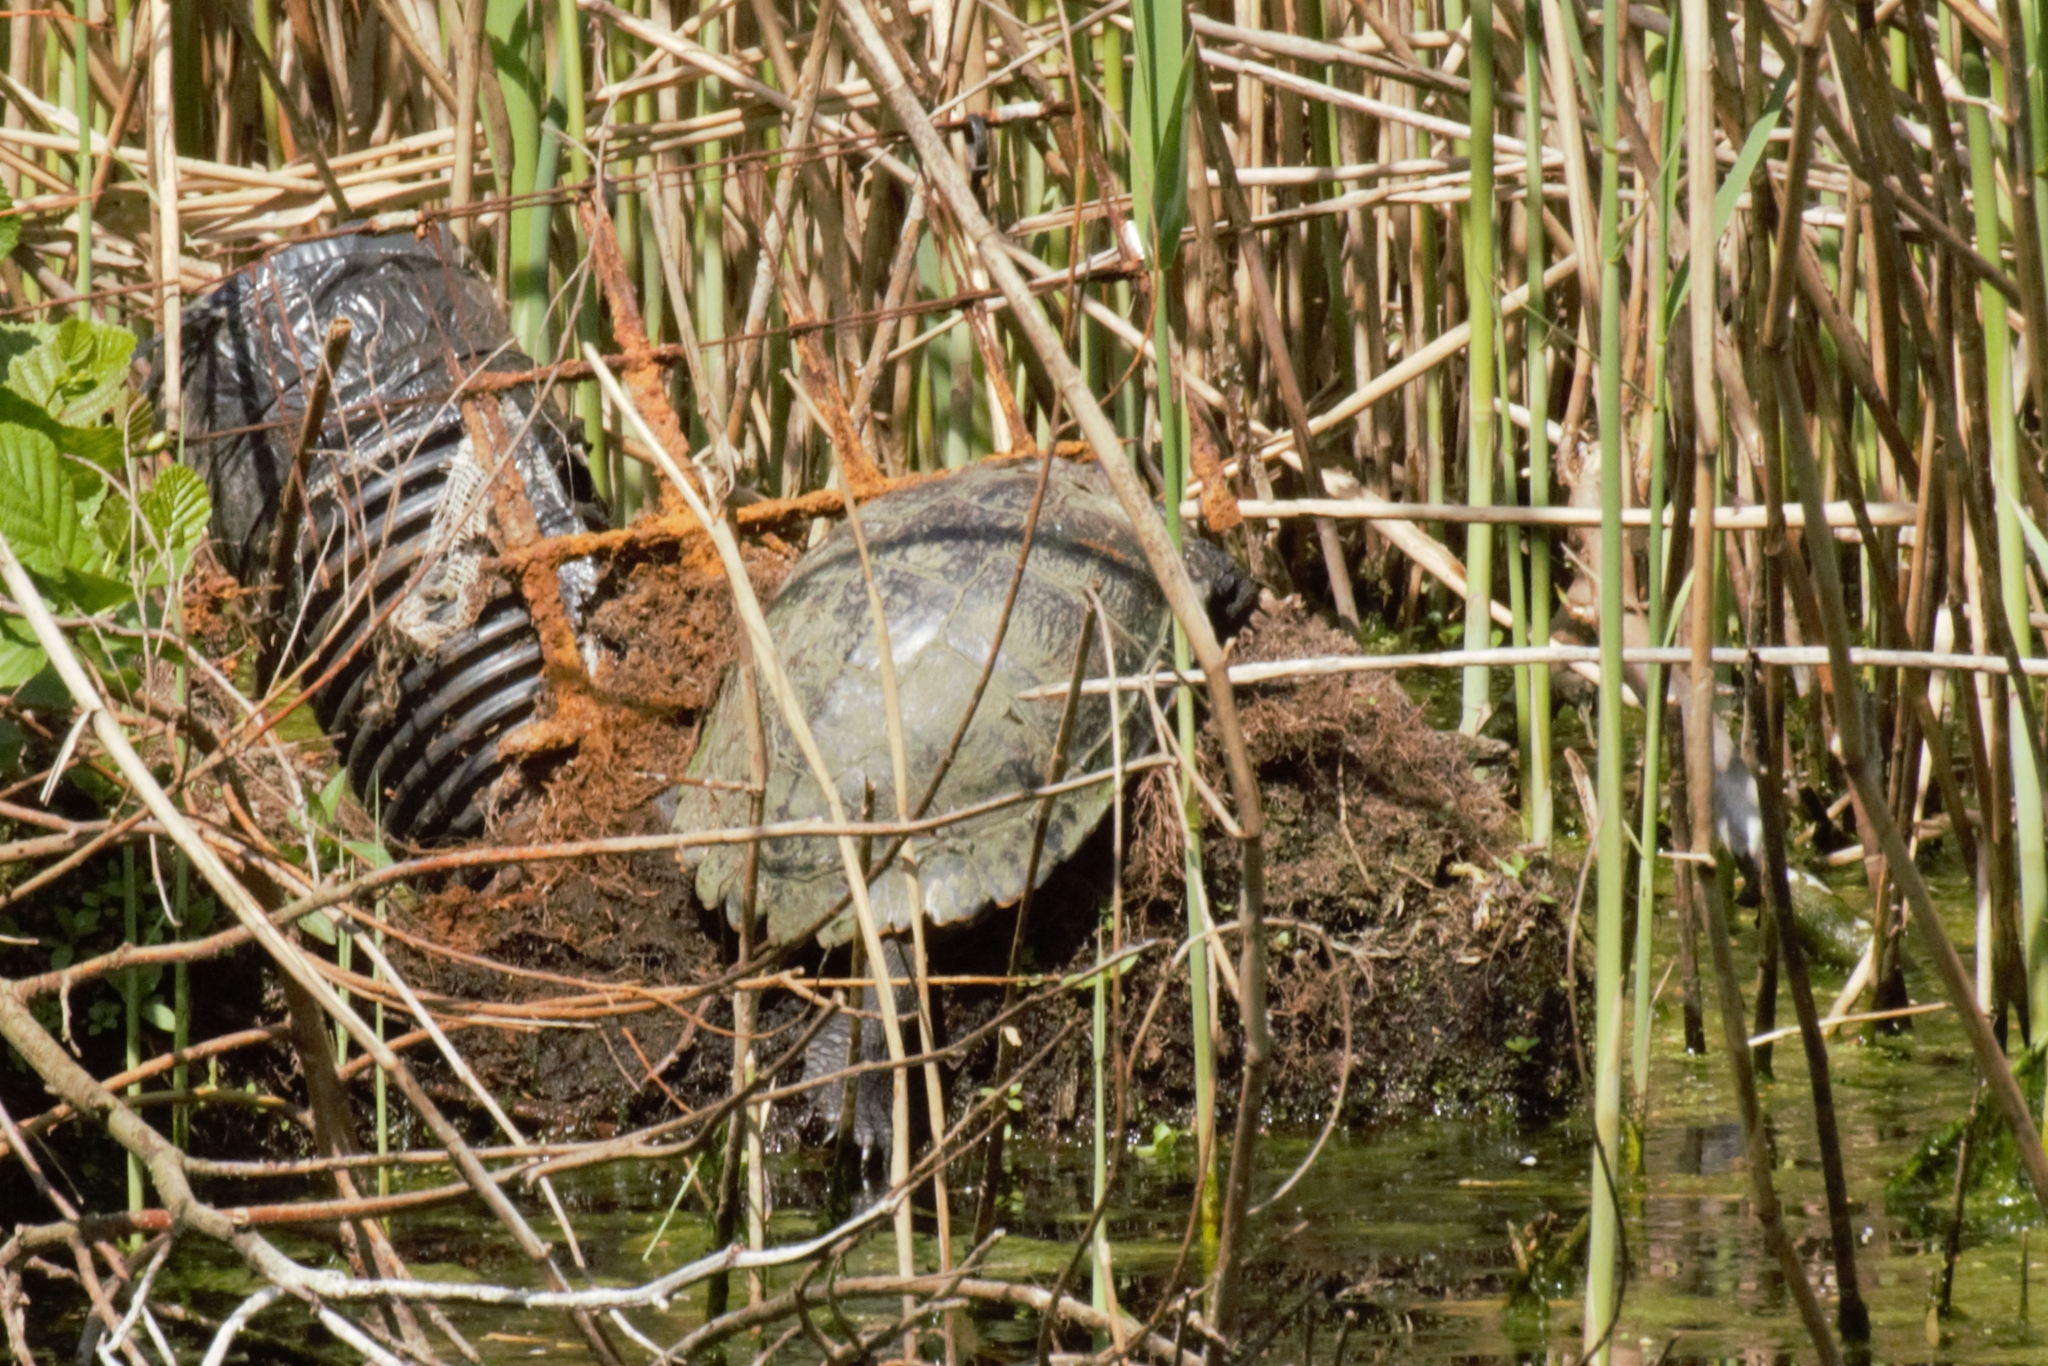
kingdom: Animalia
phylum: Chordata
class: Testudines
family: Emydidae
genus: Trachemys
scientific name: Trachemys scripta
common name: Slider
